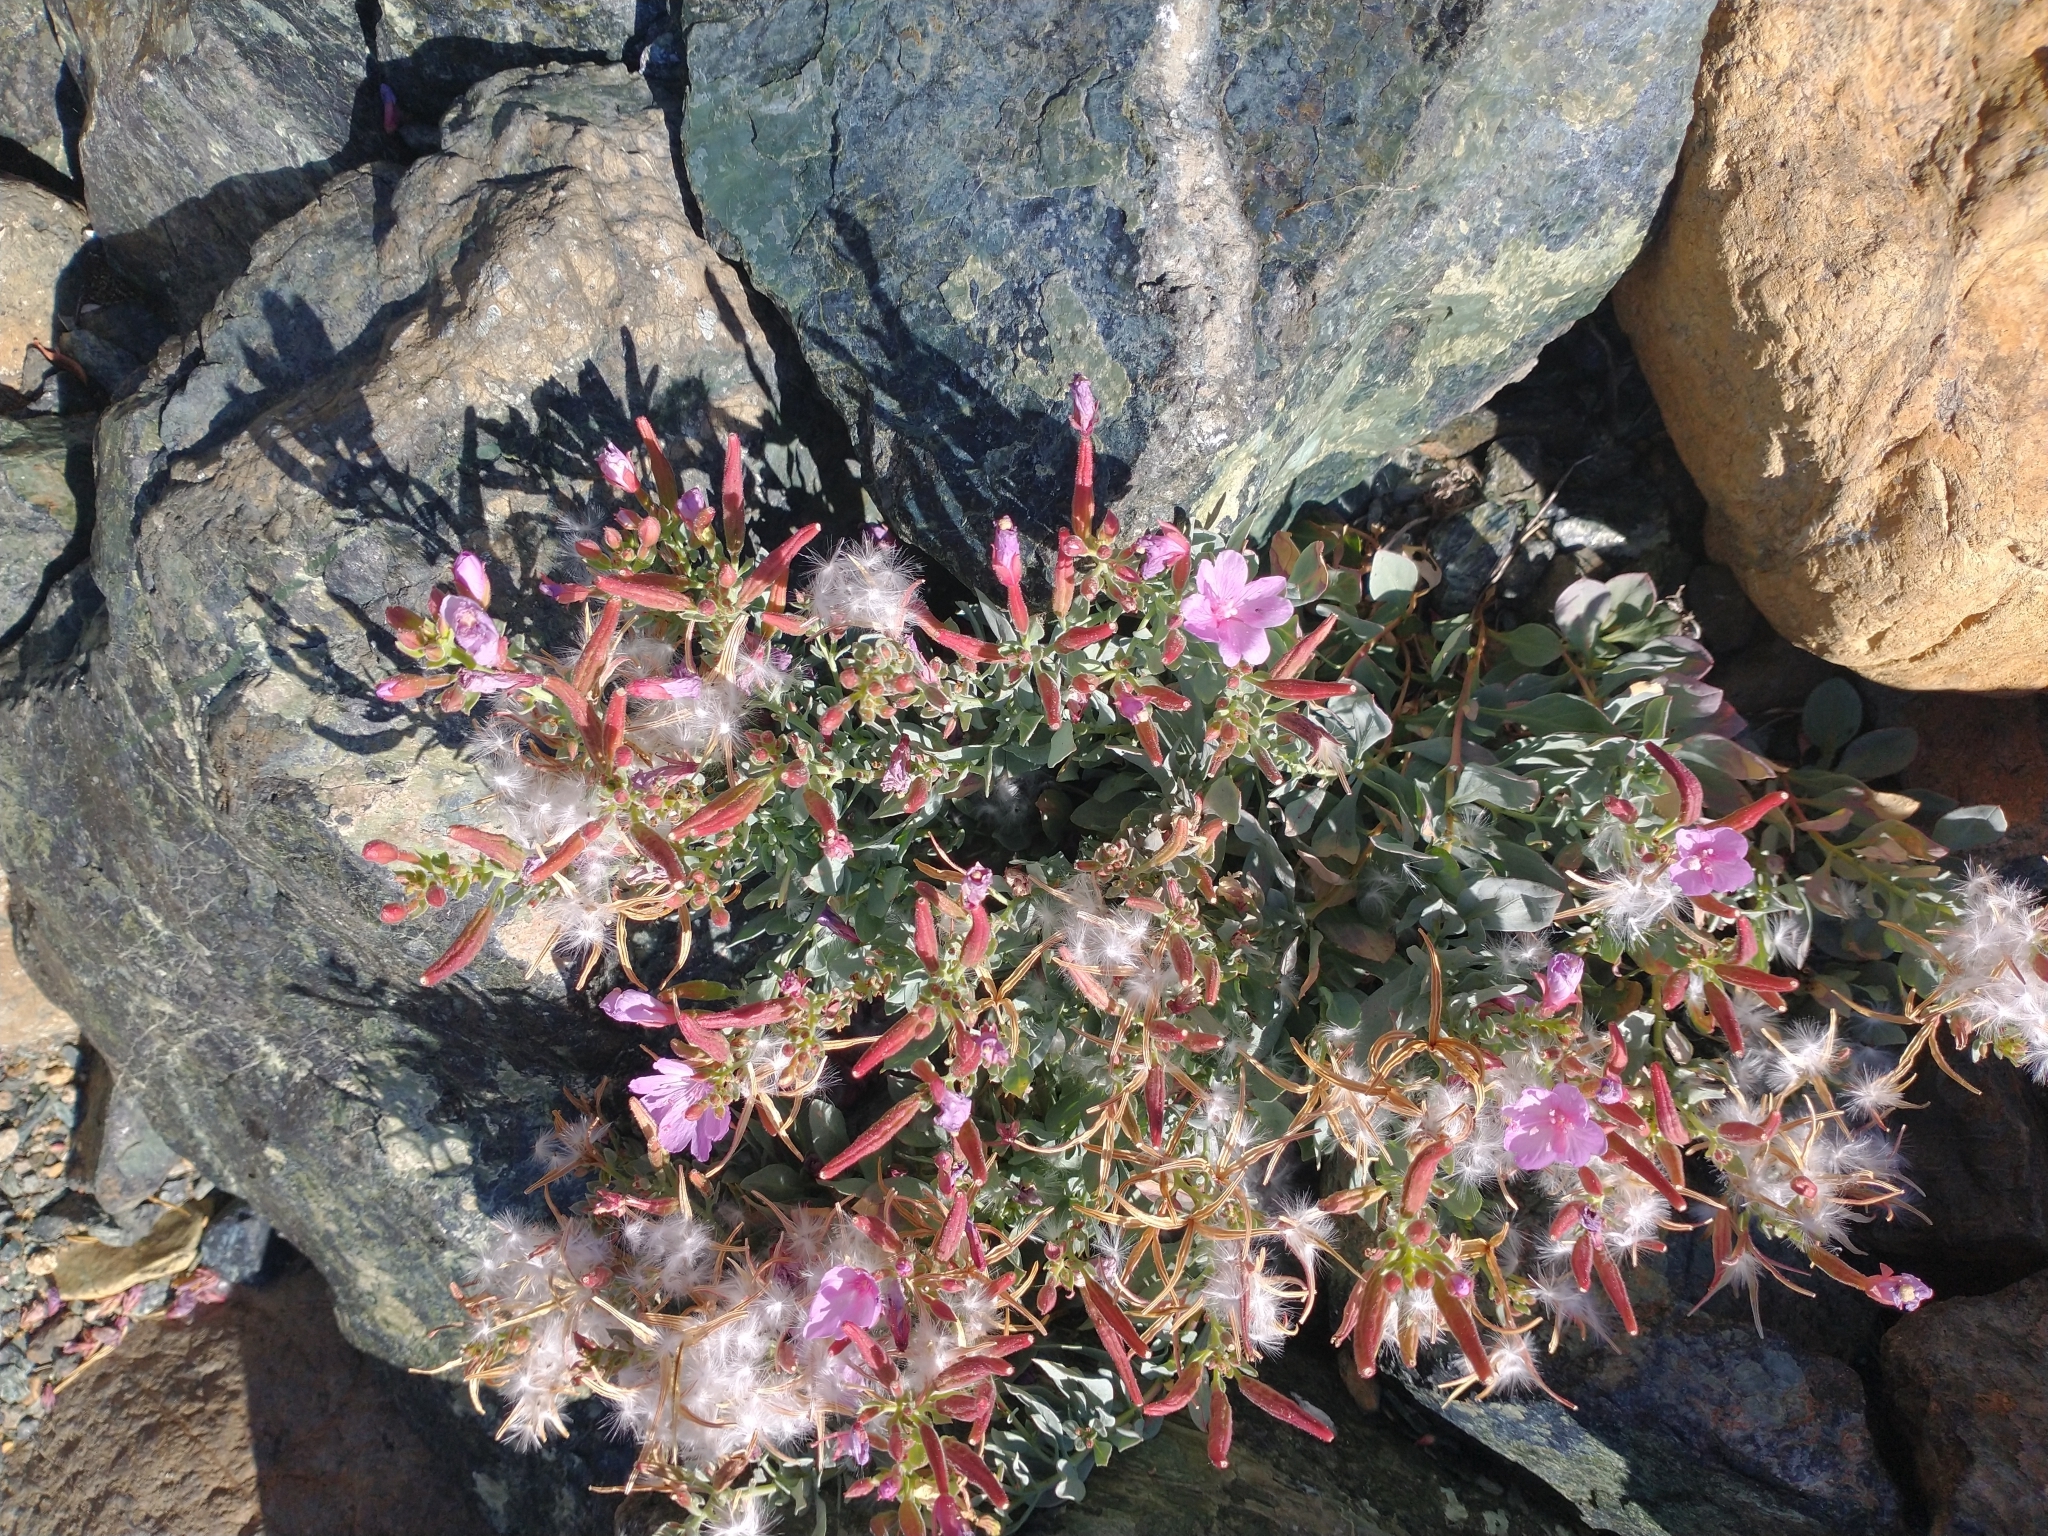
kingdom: Plantae
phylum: Tracheophyta
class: Magnoliopsida
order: Myrtales
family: Onagraceae
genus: Epilobium
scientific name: Epilobium rigidum
